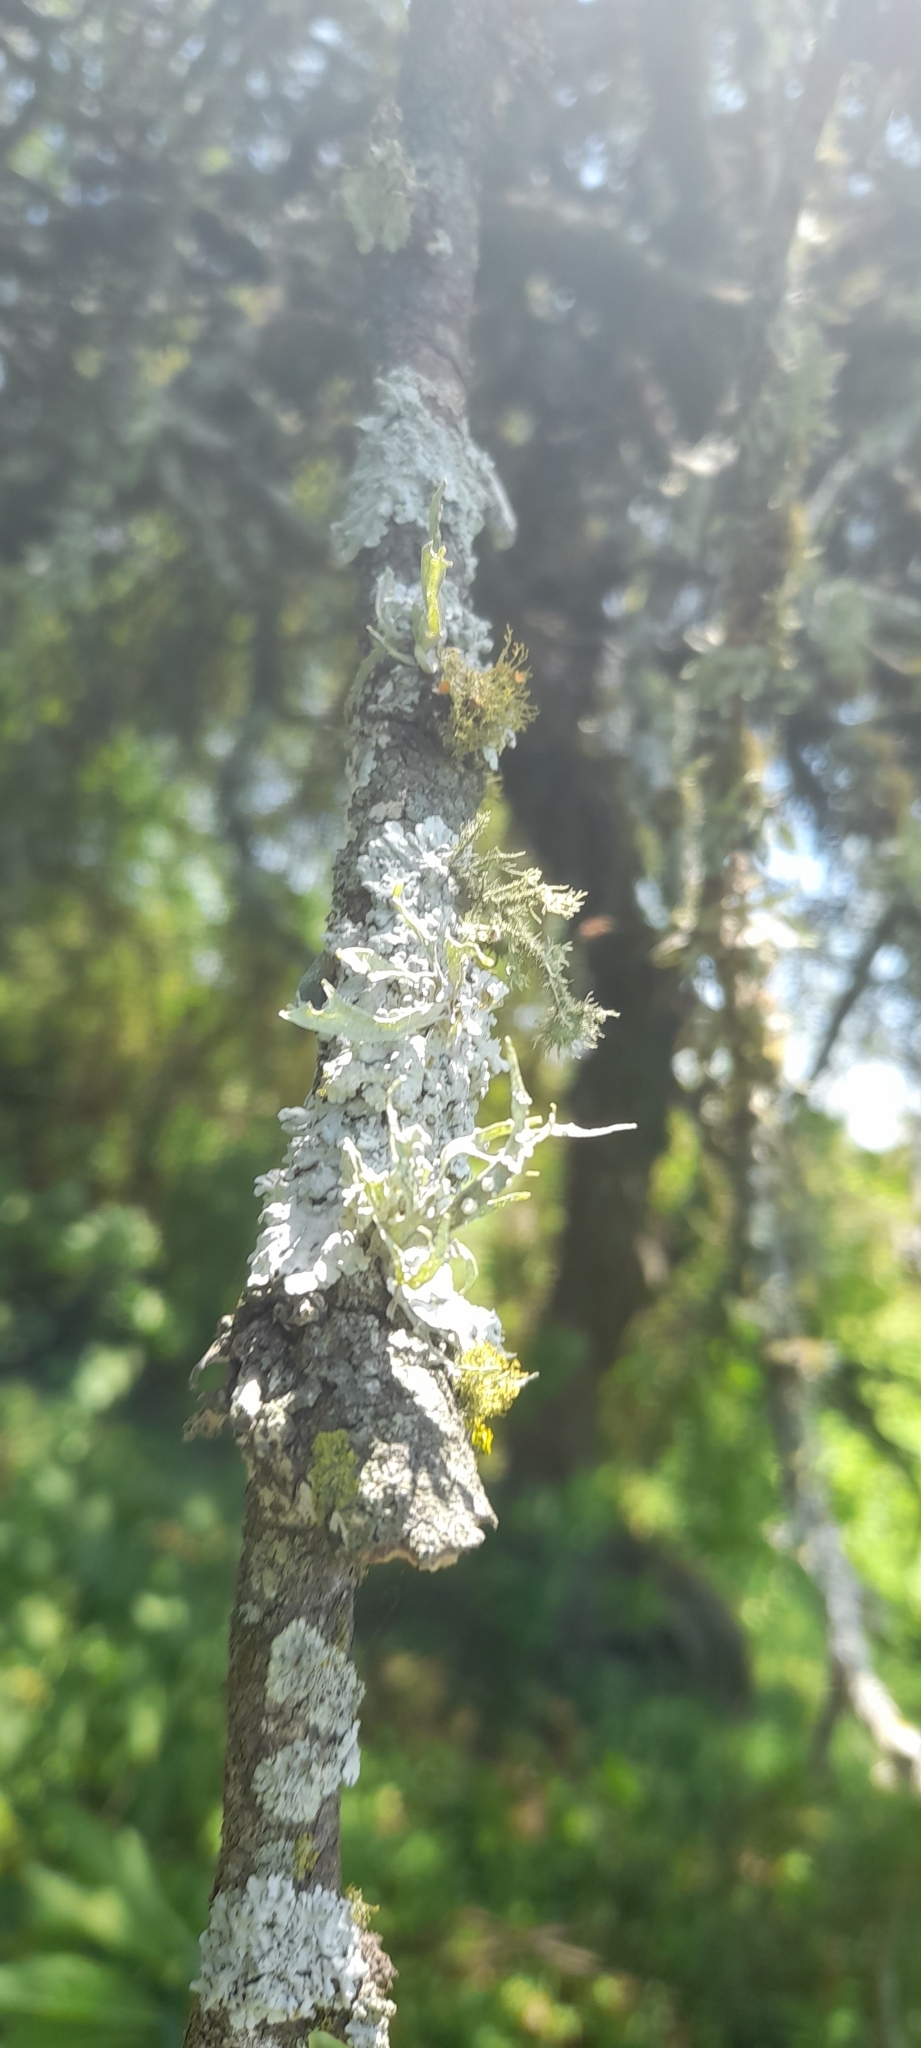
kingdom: Fungi
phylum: Ascomycota
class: Lecanoromycetes
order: Lecanorales
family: Ramalinaceae
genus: Ramalina
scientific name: Ramalina celastri
